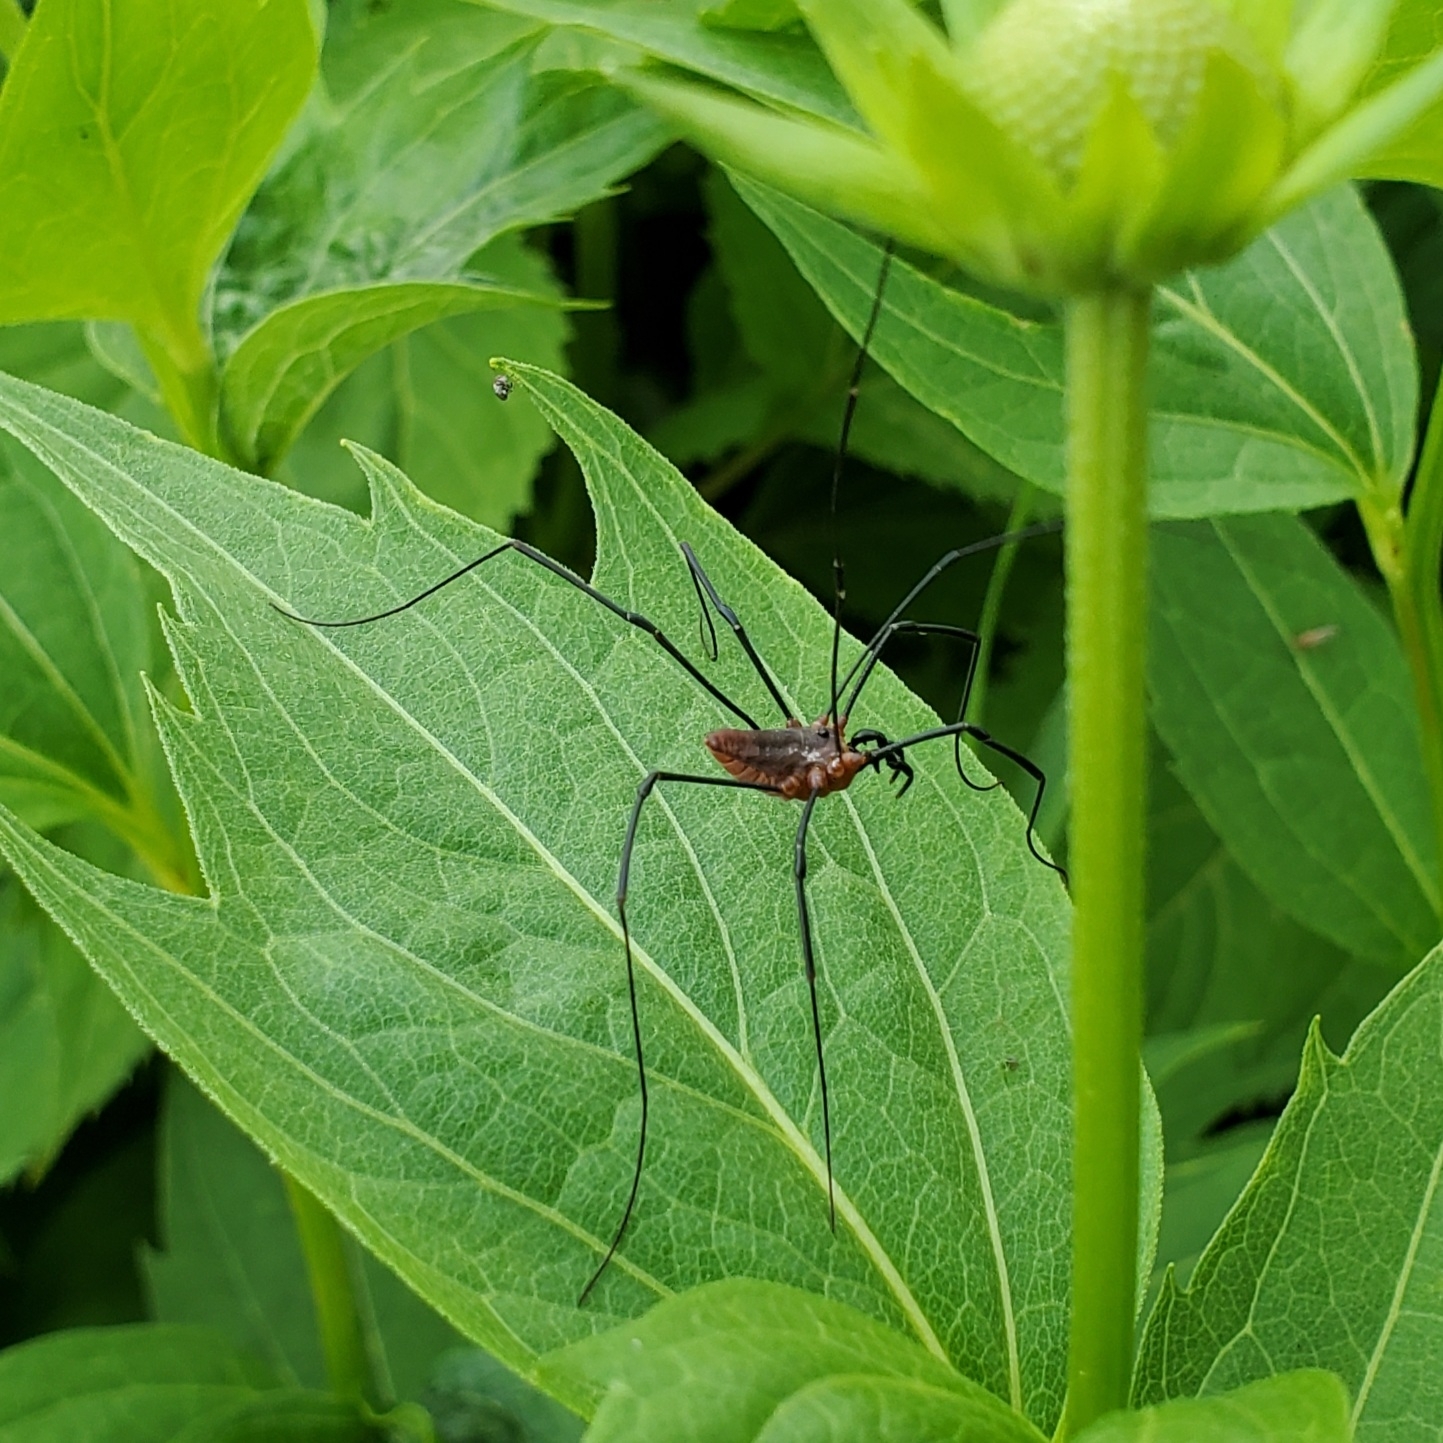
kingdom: Animalia
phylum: Arthropoda
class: Arachnida
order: Opiliones
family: Sclerosomatidae
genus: Leiobunum
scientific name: Leiobunum calcar
